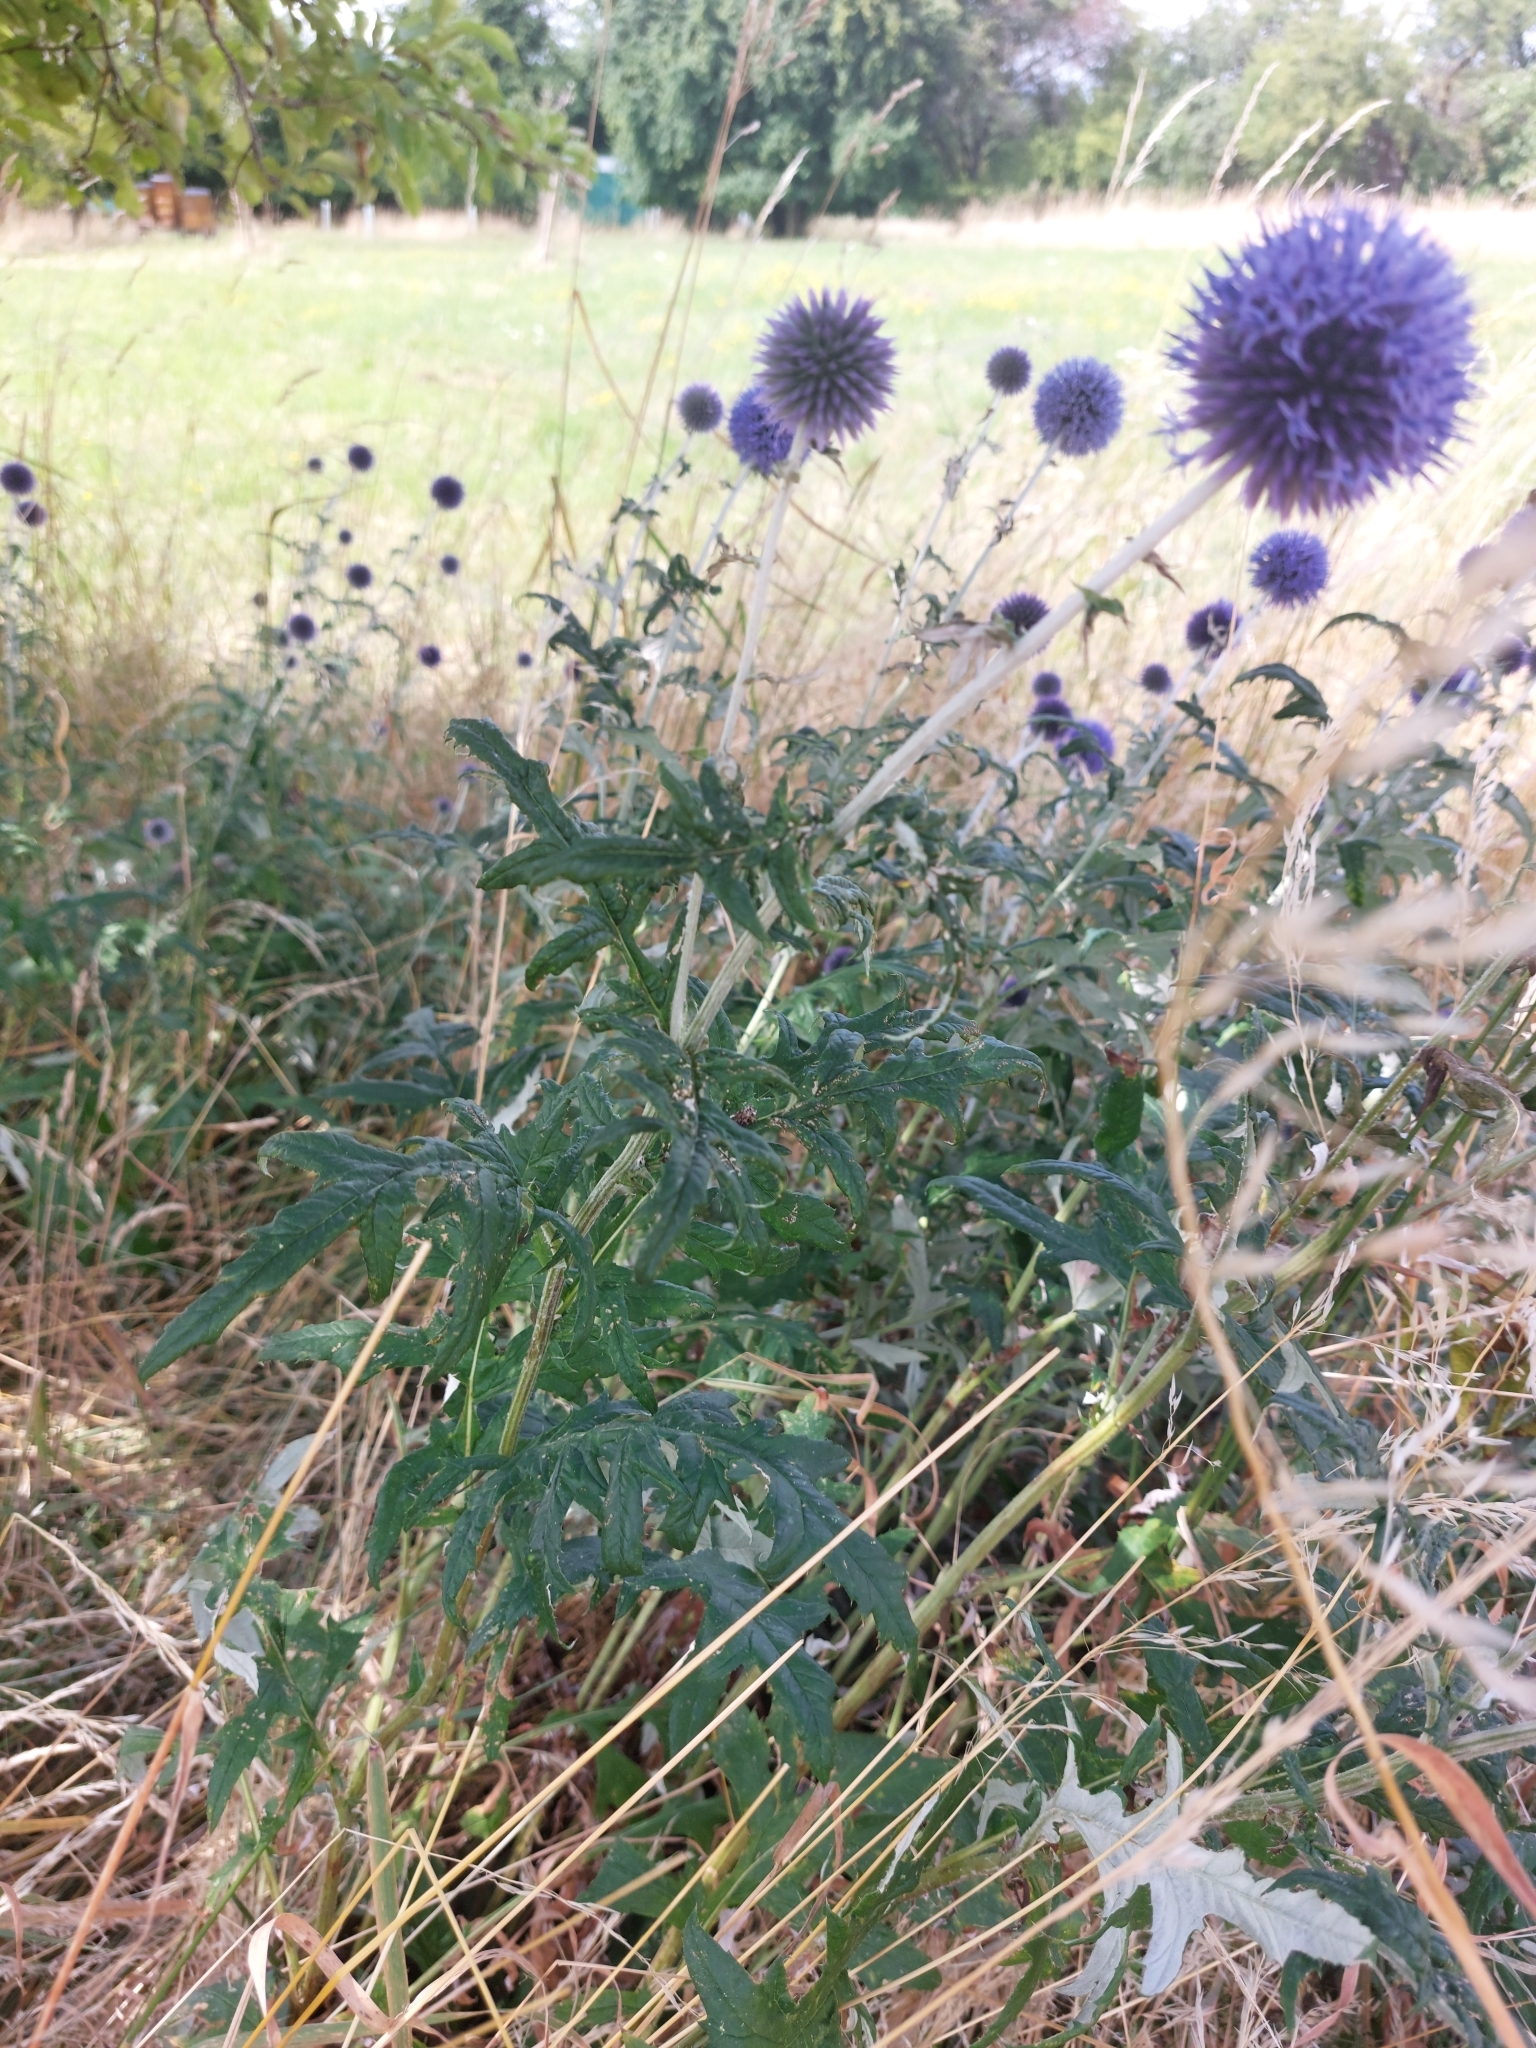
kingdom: Plantae
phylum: Tracheophyta
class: Magnoliopsida
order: Asterales
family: Asteraceae
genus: Echinops
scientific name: Echinops bannaticus
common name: Blue globe-thistle
